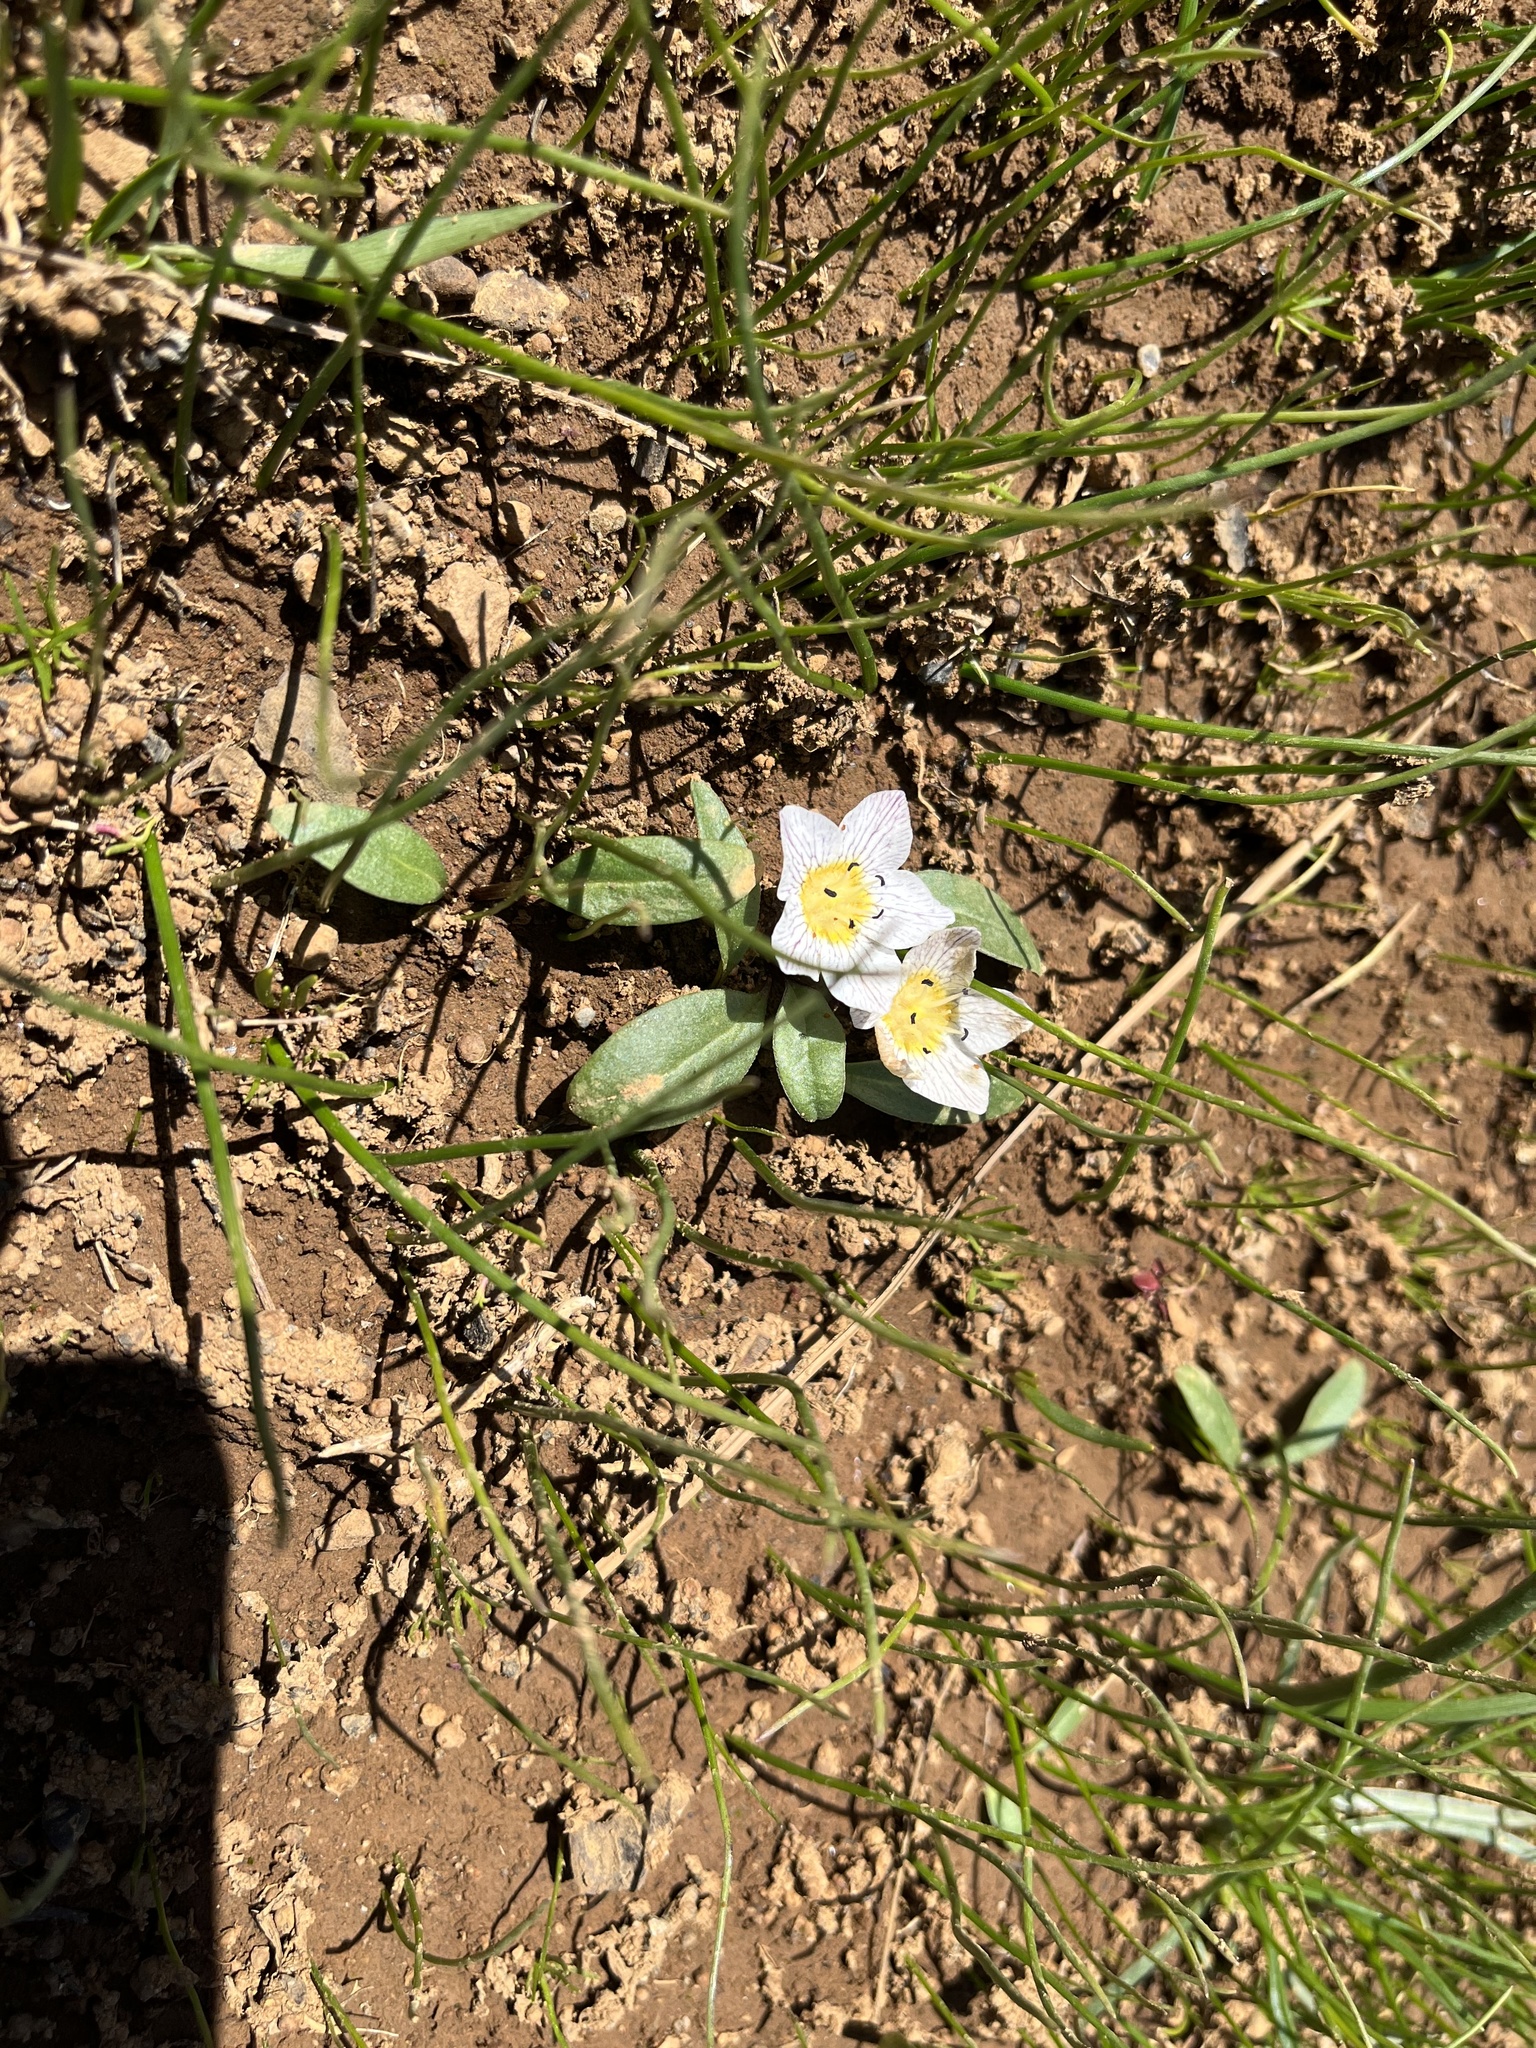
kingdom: Plantae
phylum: Tracheophyta
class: Magnoliopsida
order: Boraginales
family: Hydrophyllaceae
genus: Hesperochiron
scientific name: Hesperochiron pumilus
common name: Dwarf hesperochiron
